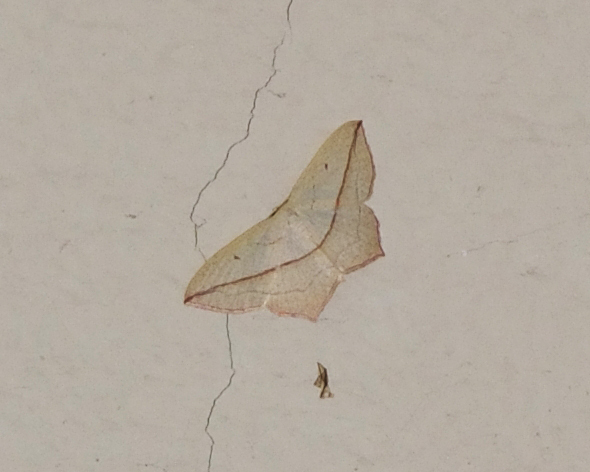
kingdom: Animalia
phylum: Arthropoda
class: Insecta
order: Lepidoptera
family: Geometridae
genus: Timandra
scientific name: Timandra comae
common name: Blood-vein
